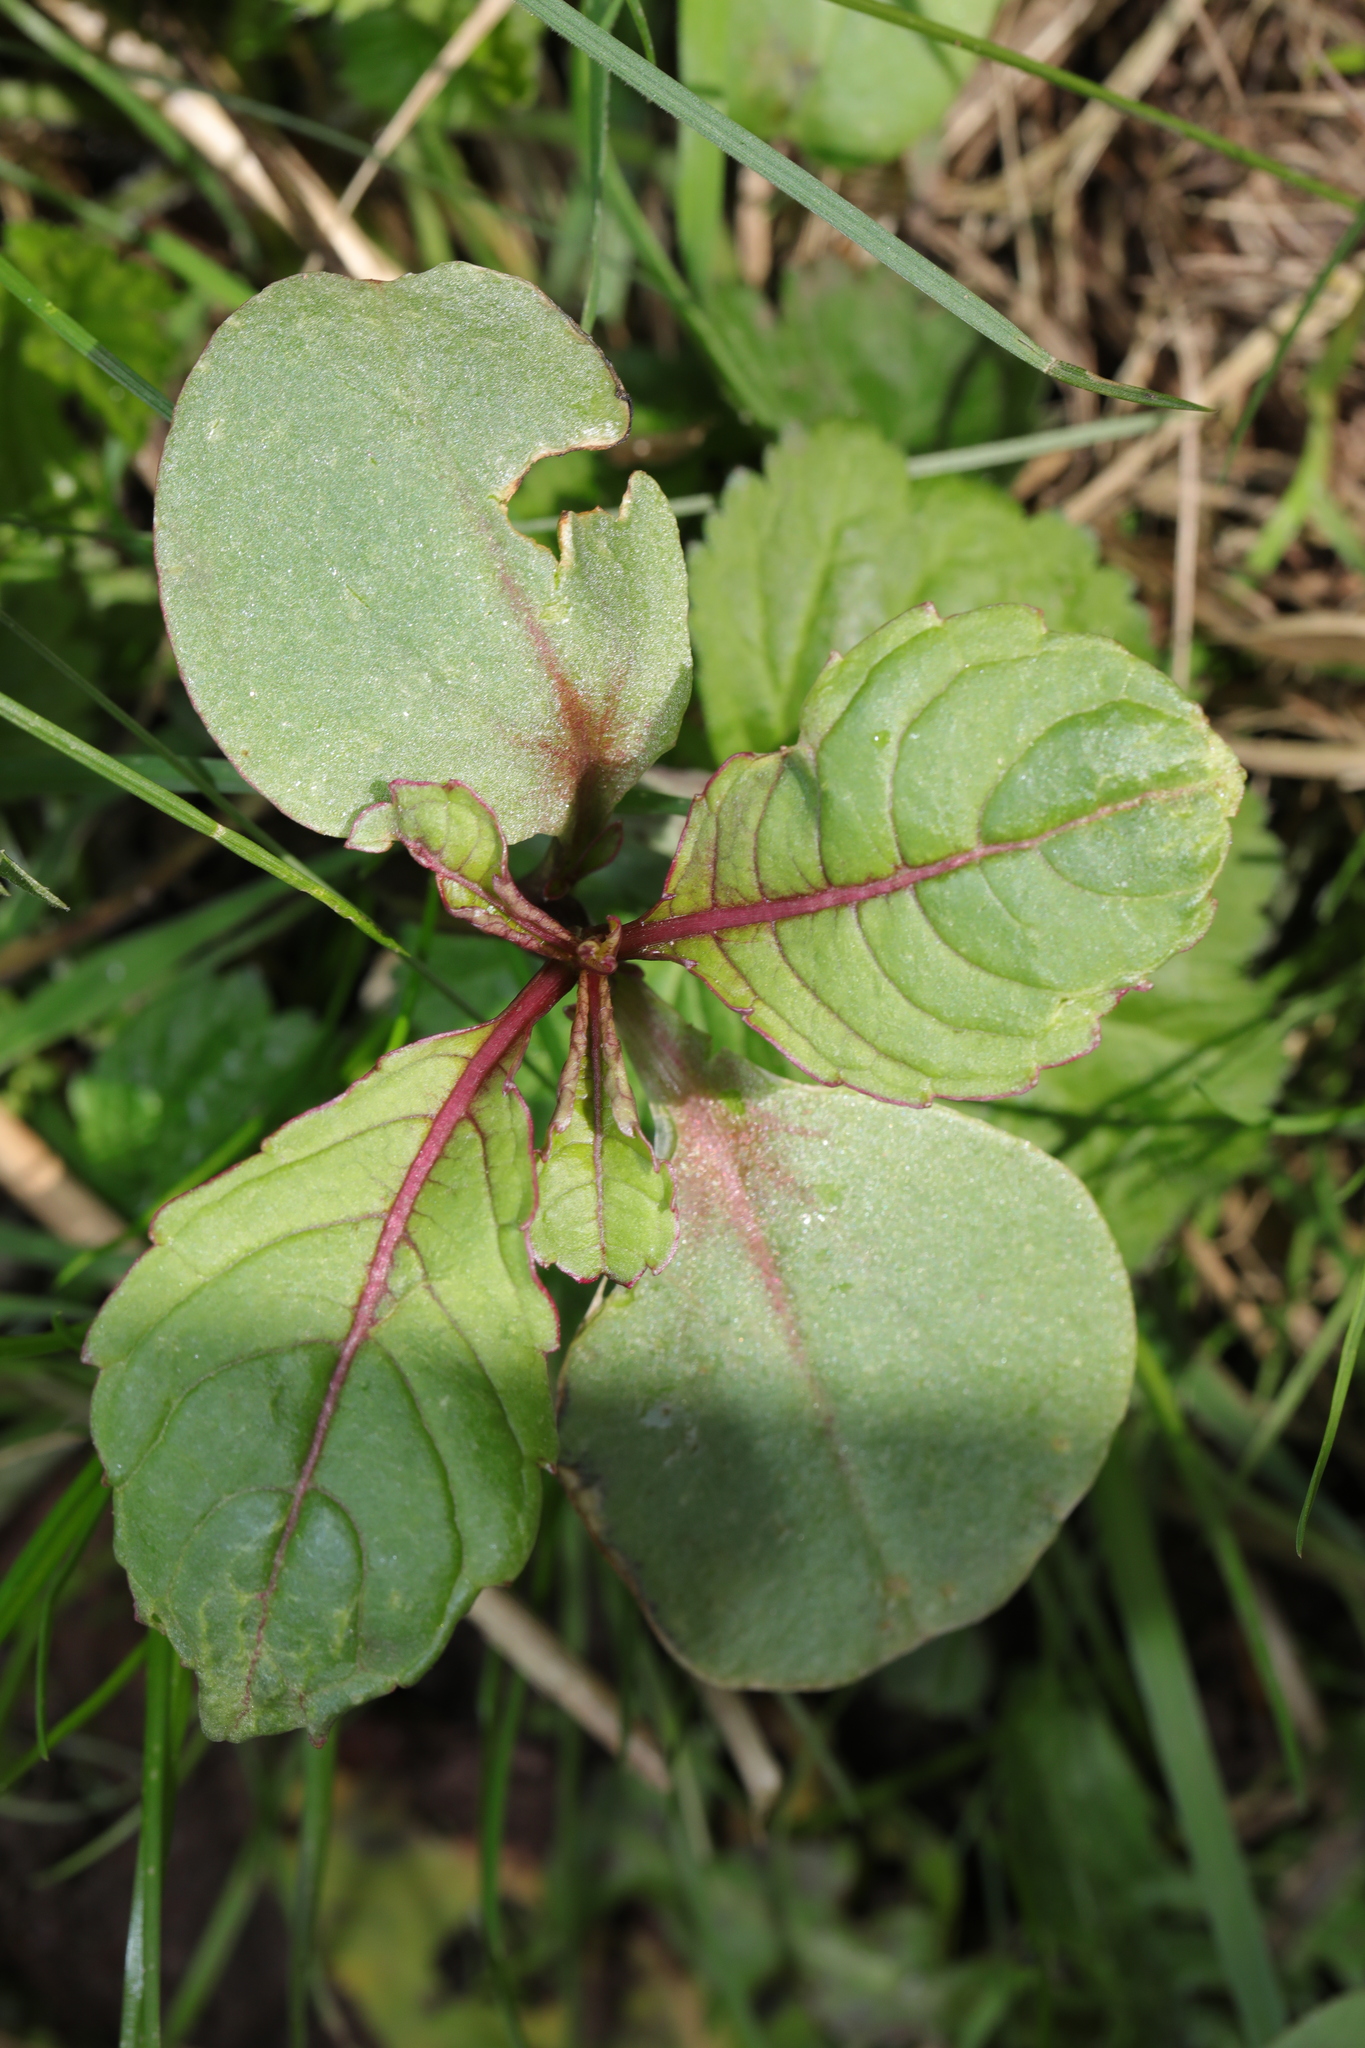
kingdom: Plantae
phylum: Tracheophyta
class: Magnoliopsida
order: Ericales
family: Balsaminaceae
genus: Impatiens
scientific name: Impatiens glandulifera
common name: Himalayan balsam
